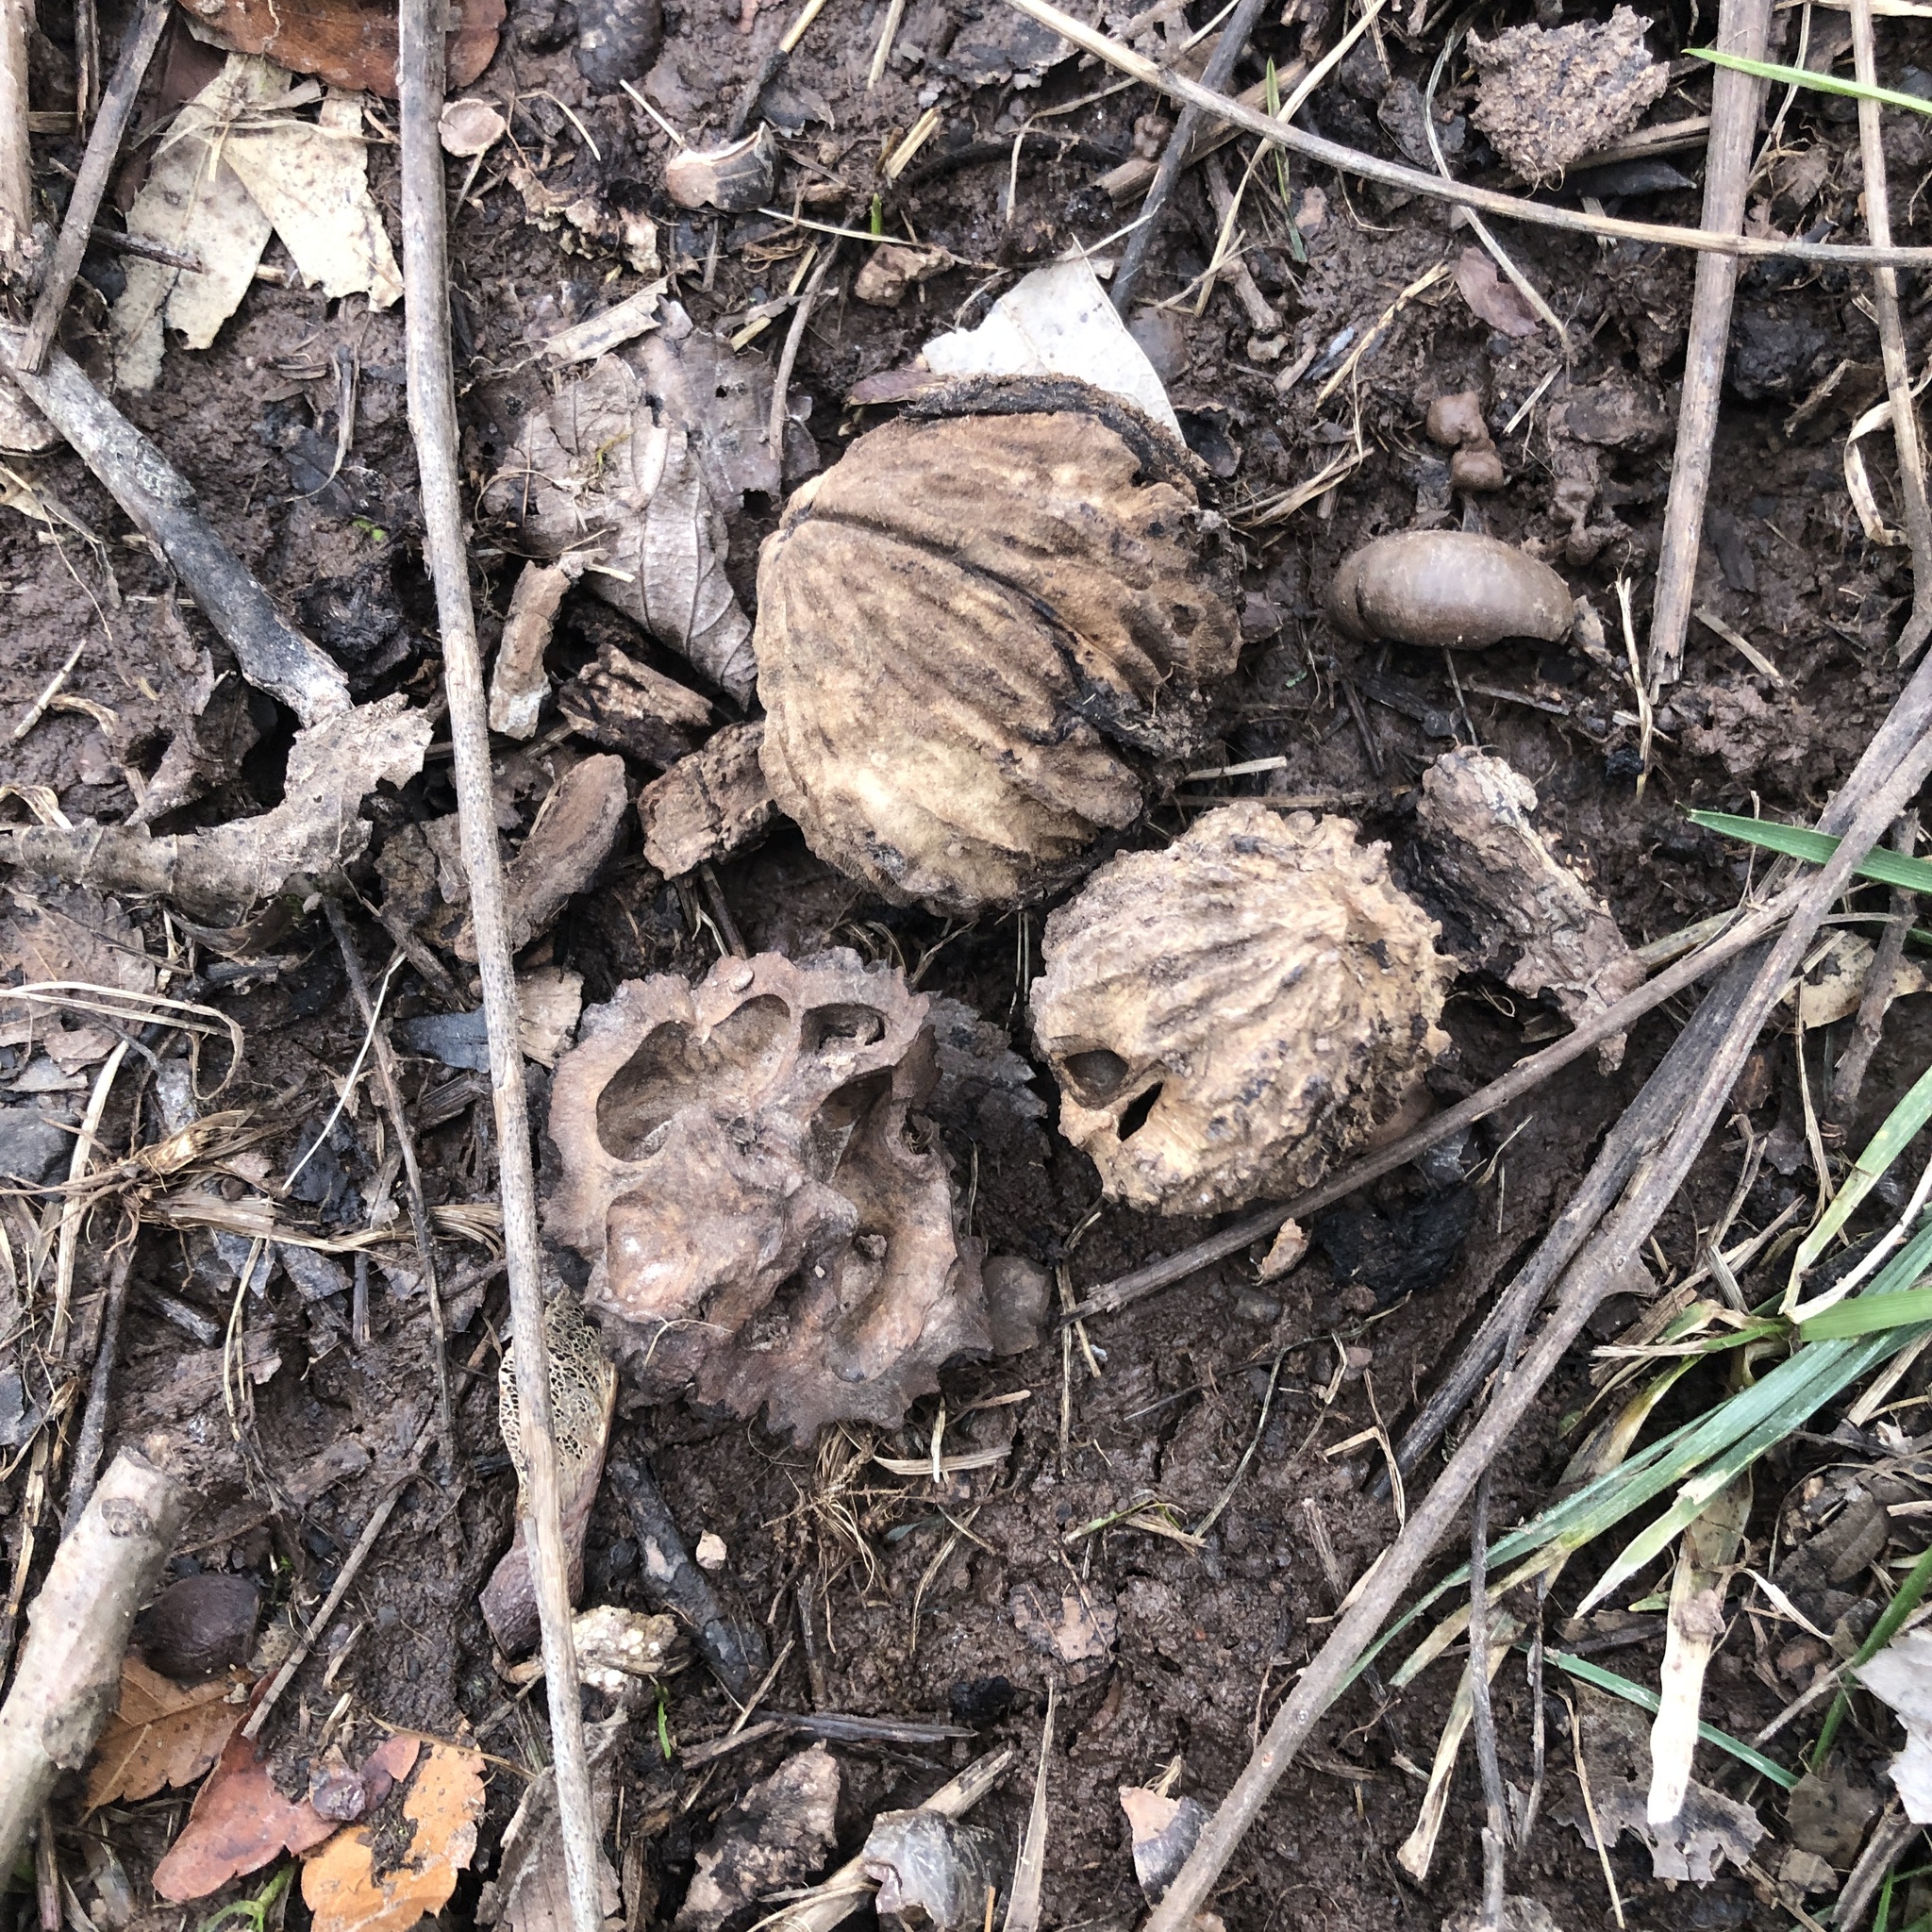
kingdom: Plantae
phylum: Tracheophyta
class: Magnoliopsida
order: Fagales
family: Juglandaceae
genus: Juglans
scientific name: Juglans nigra
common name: Black walnut
